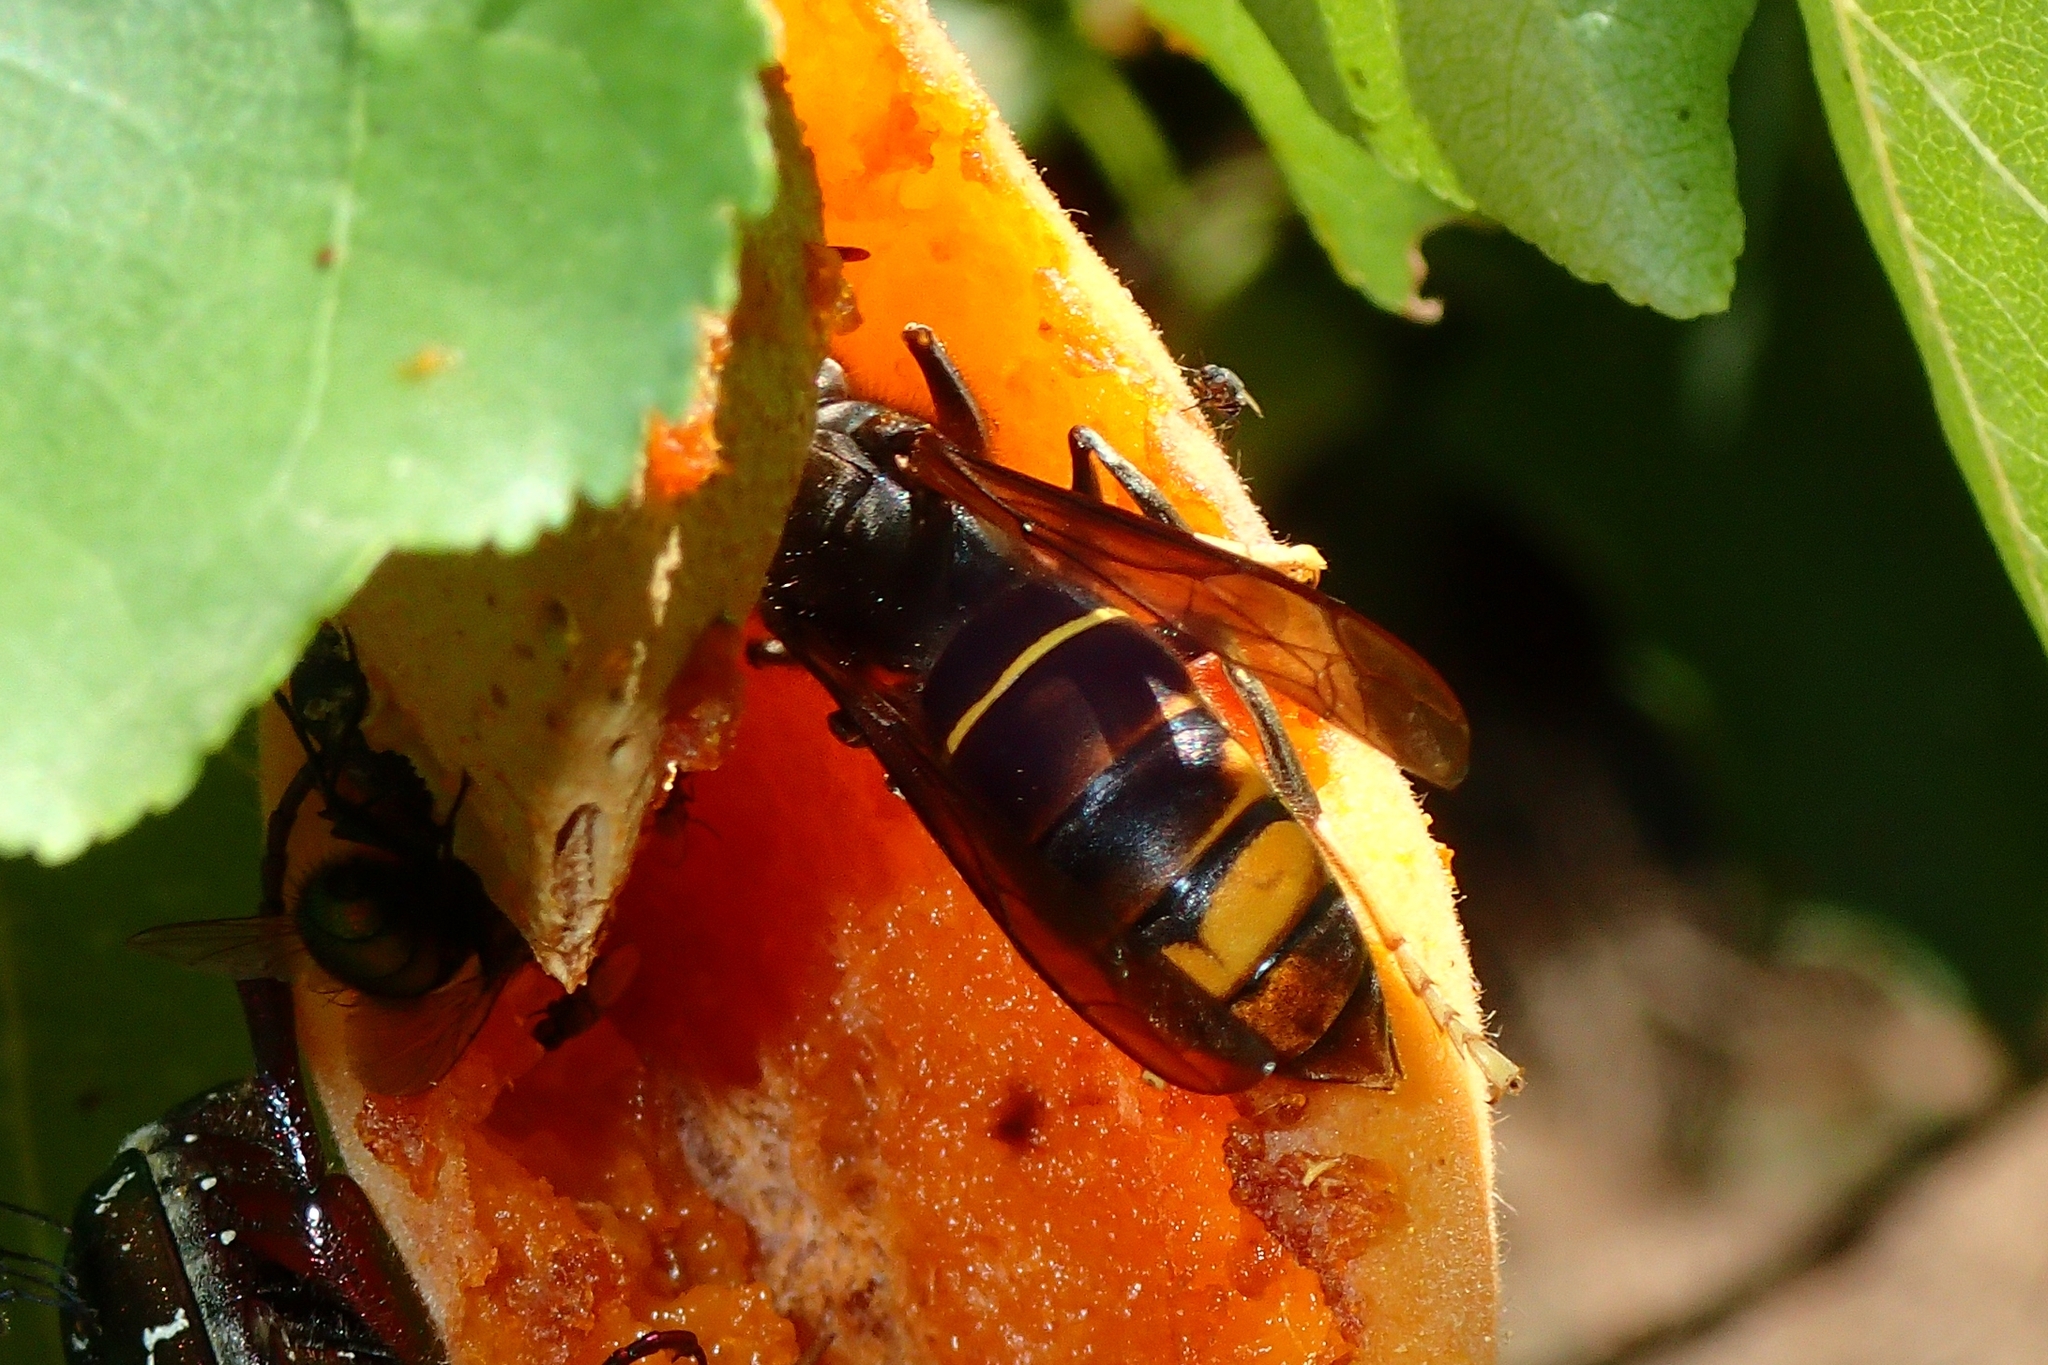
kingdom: Animalia
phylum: Arthropoda
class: Insecta
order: Hymenoptera
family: Vespidae
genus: Vespa
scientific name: Vespa velutina
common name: Asian hornet
